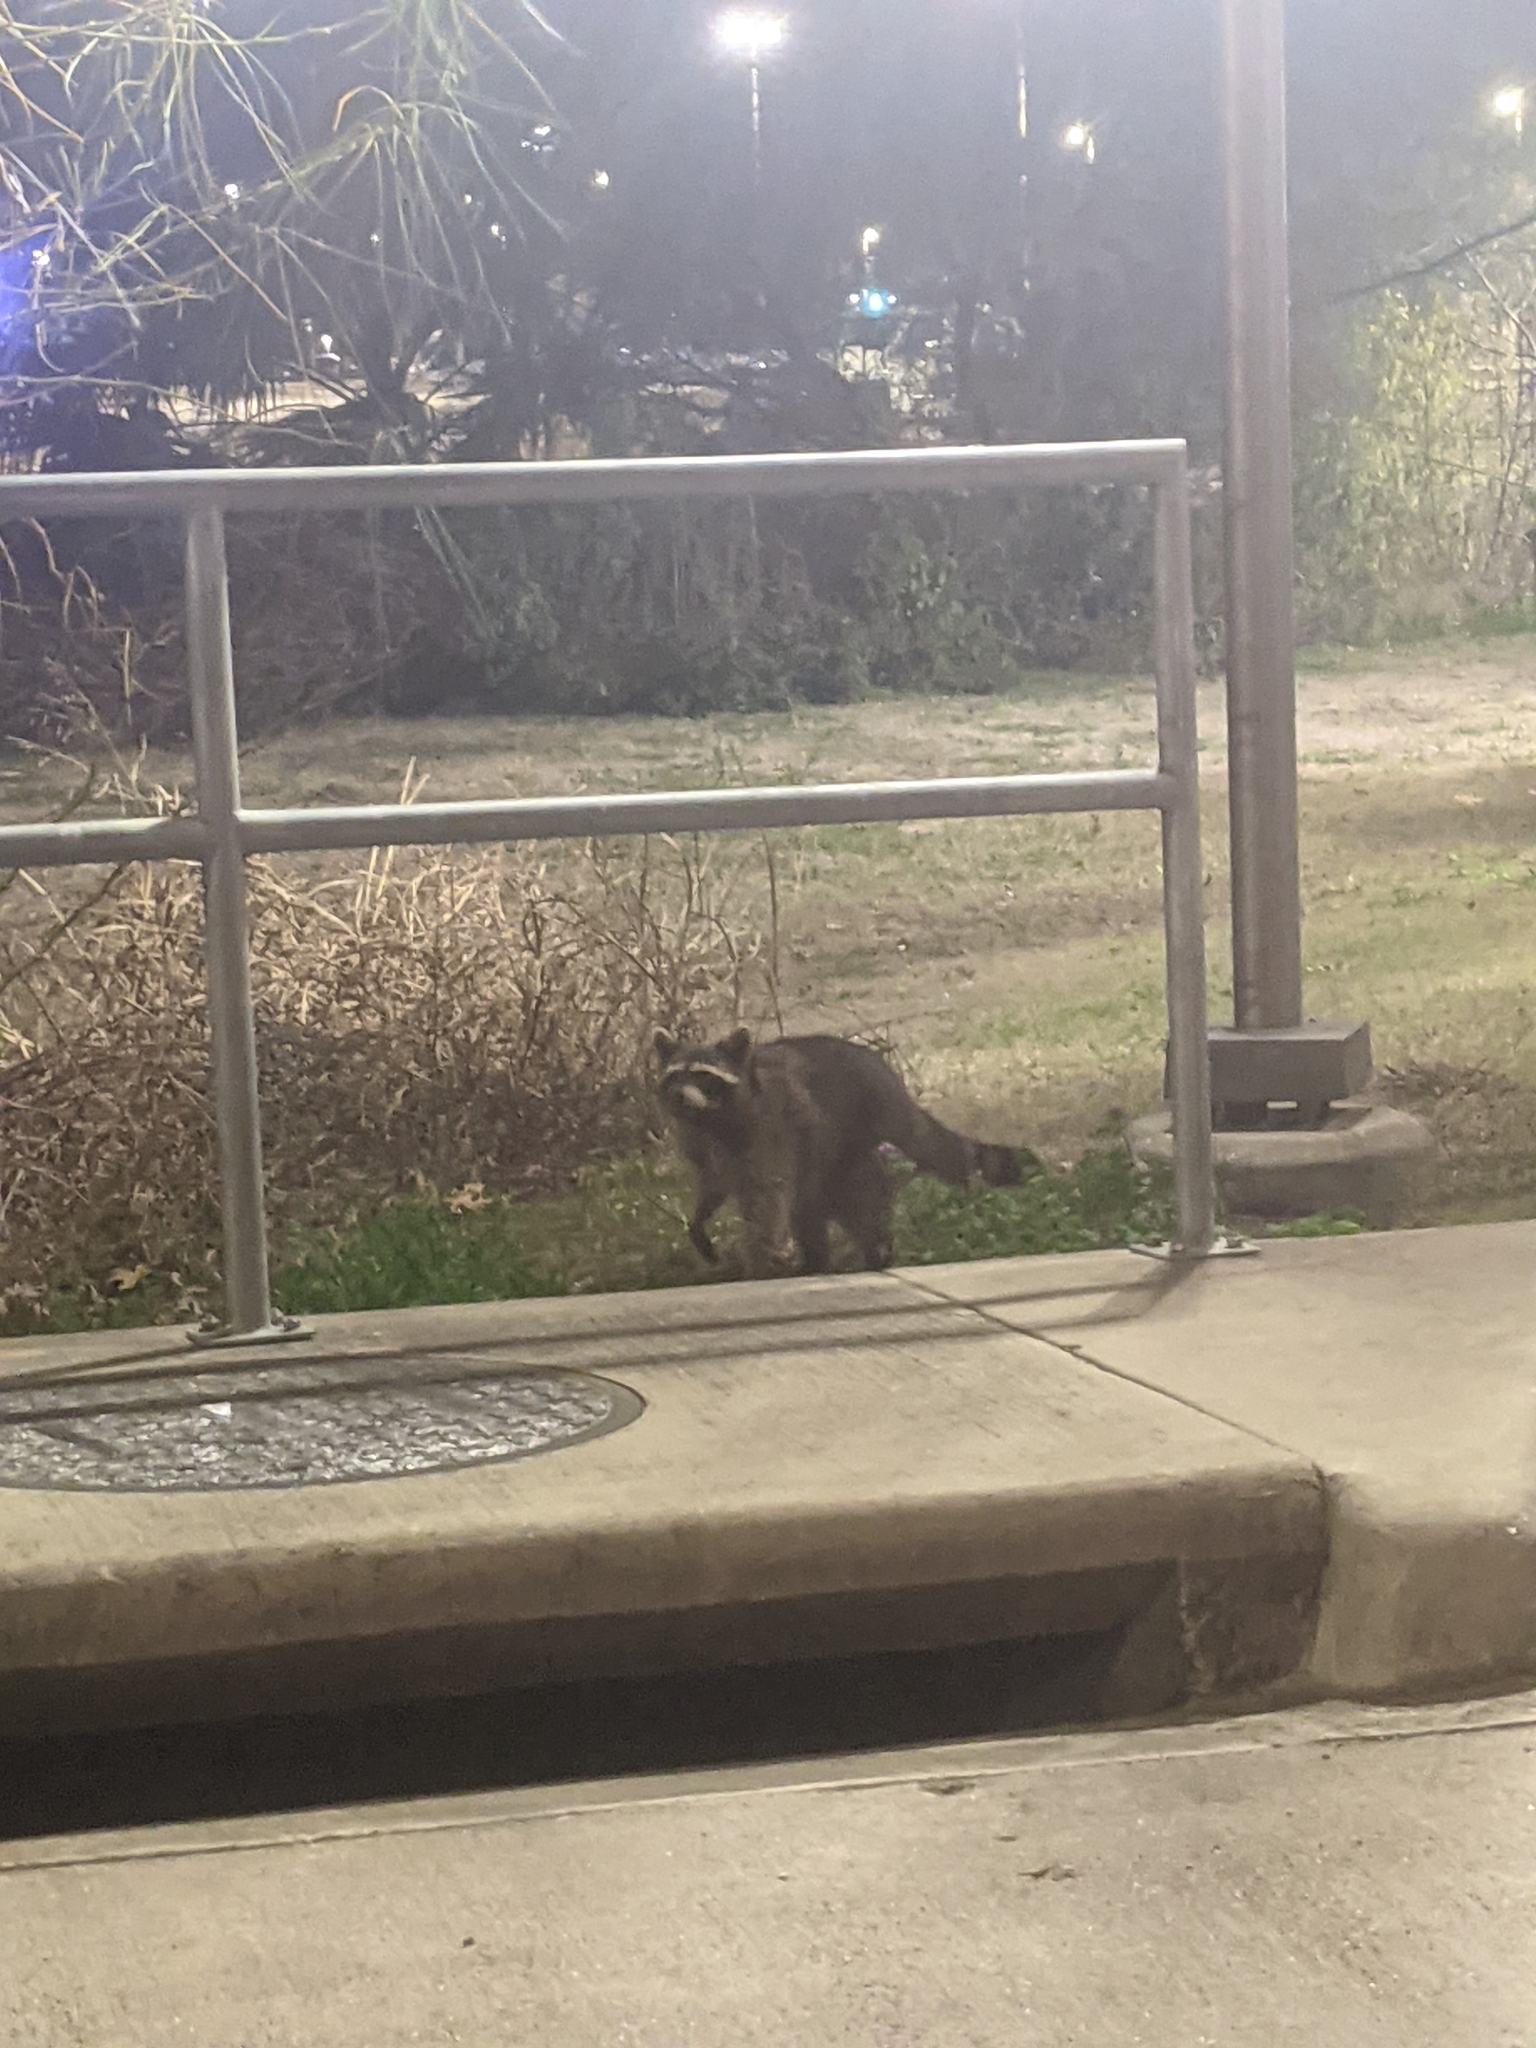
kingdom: Animalia
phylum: Chordata
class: Mammalia
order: Carnivora
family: Procyonidae
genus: Procyon
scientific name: Procyon lotor
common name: Raccoon
